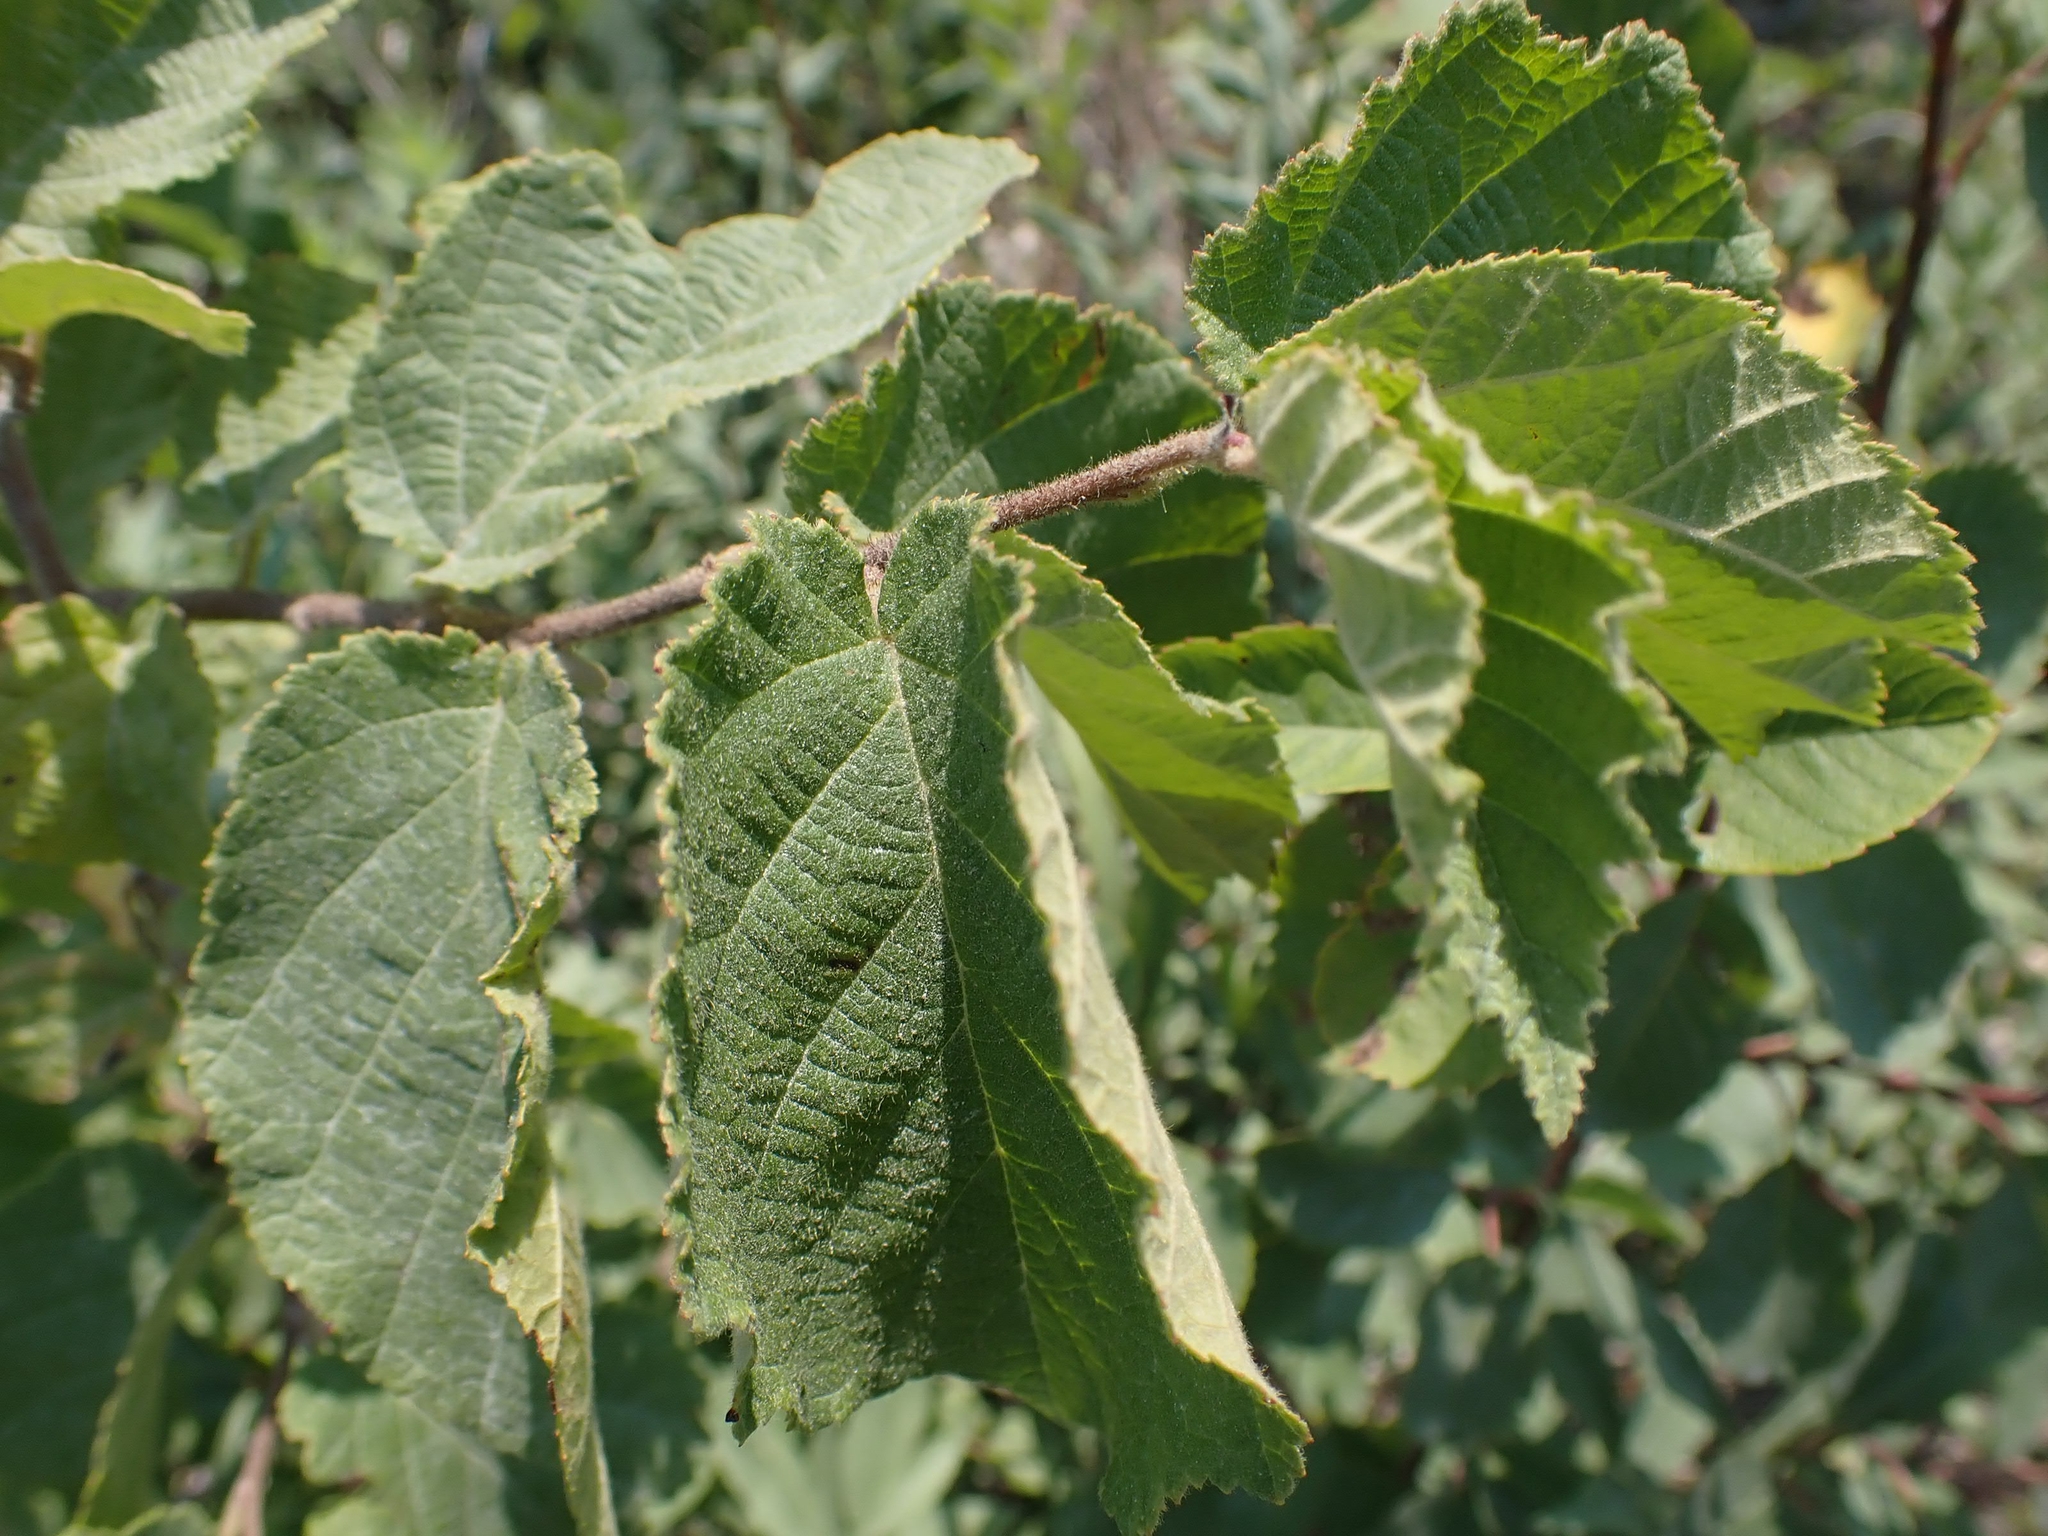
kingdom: Plantae
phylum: Tracheophyta
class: Magnoliopsida
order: Fagales
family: Betulaceae
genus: Corylus
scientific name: Corylus americana
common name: American hazel
